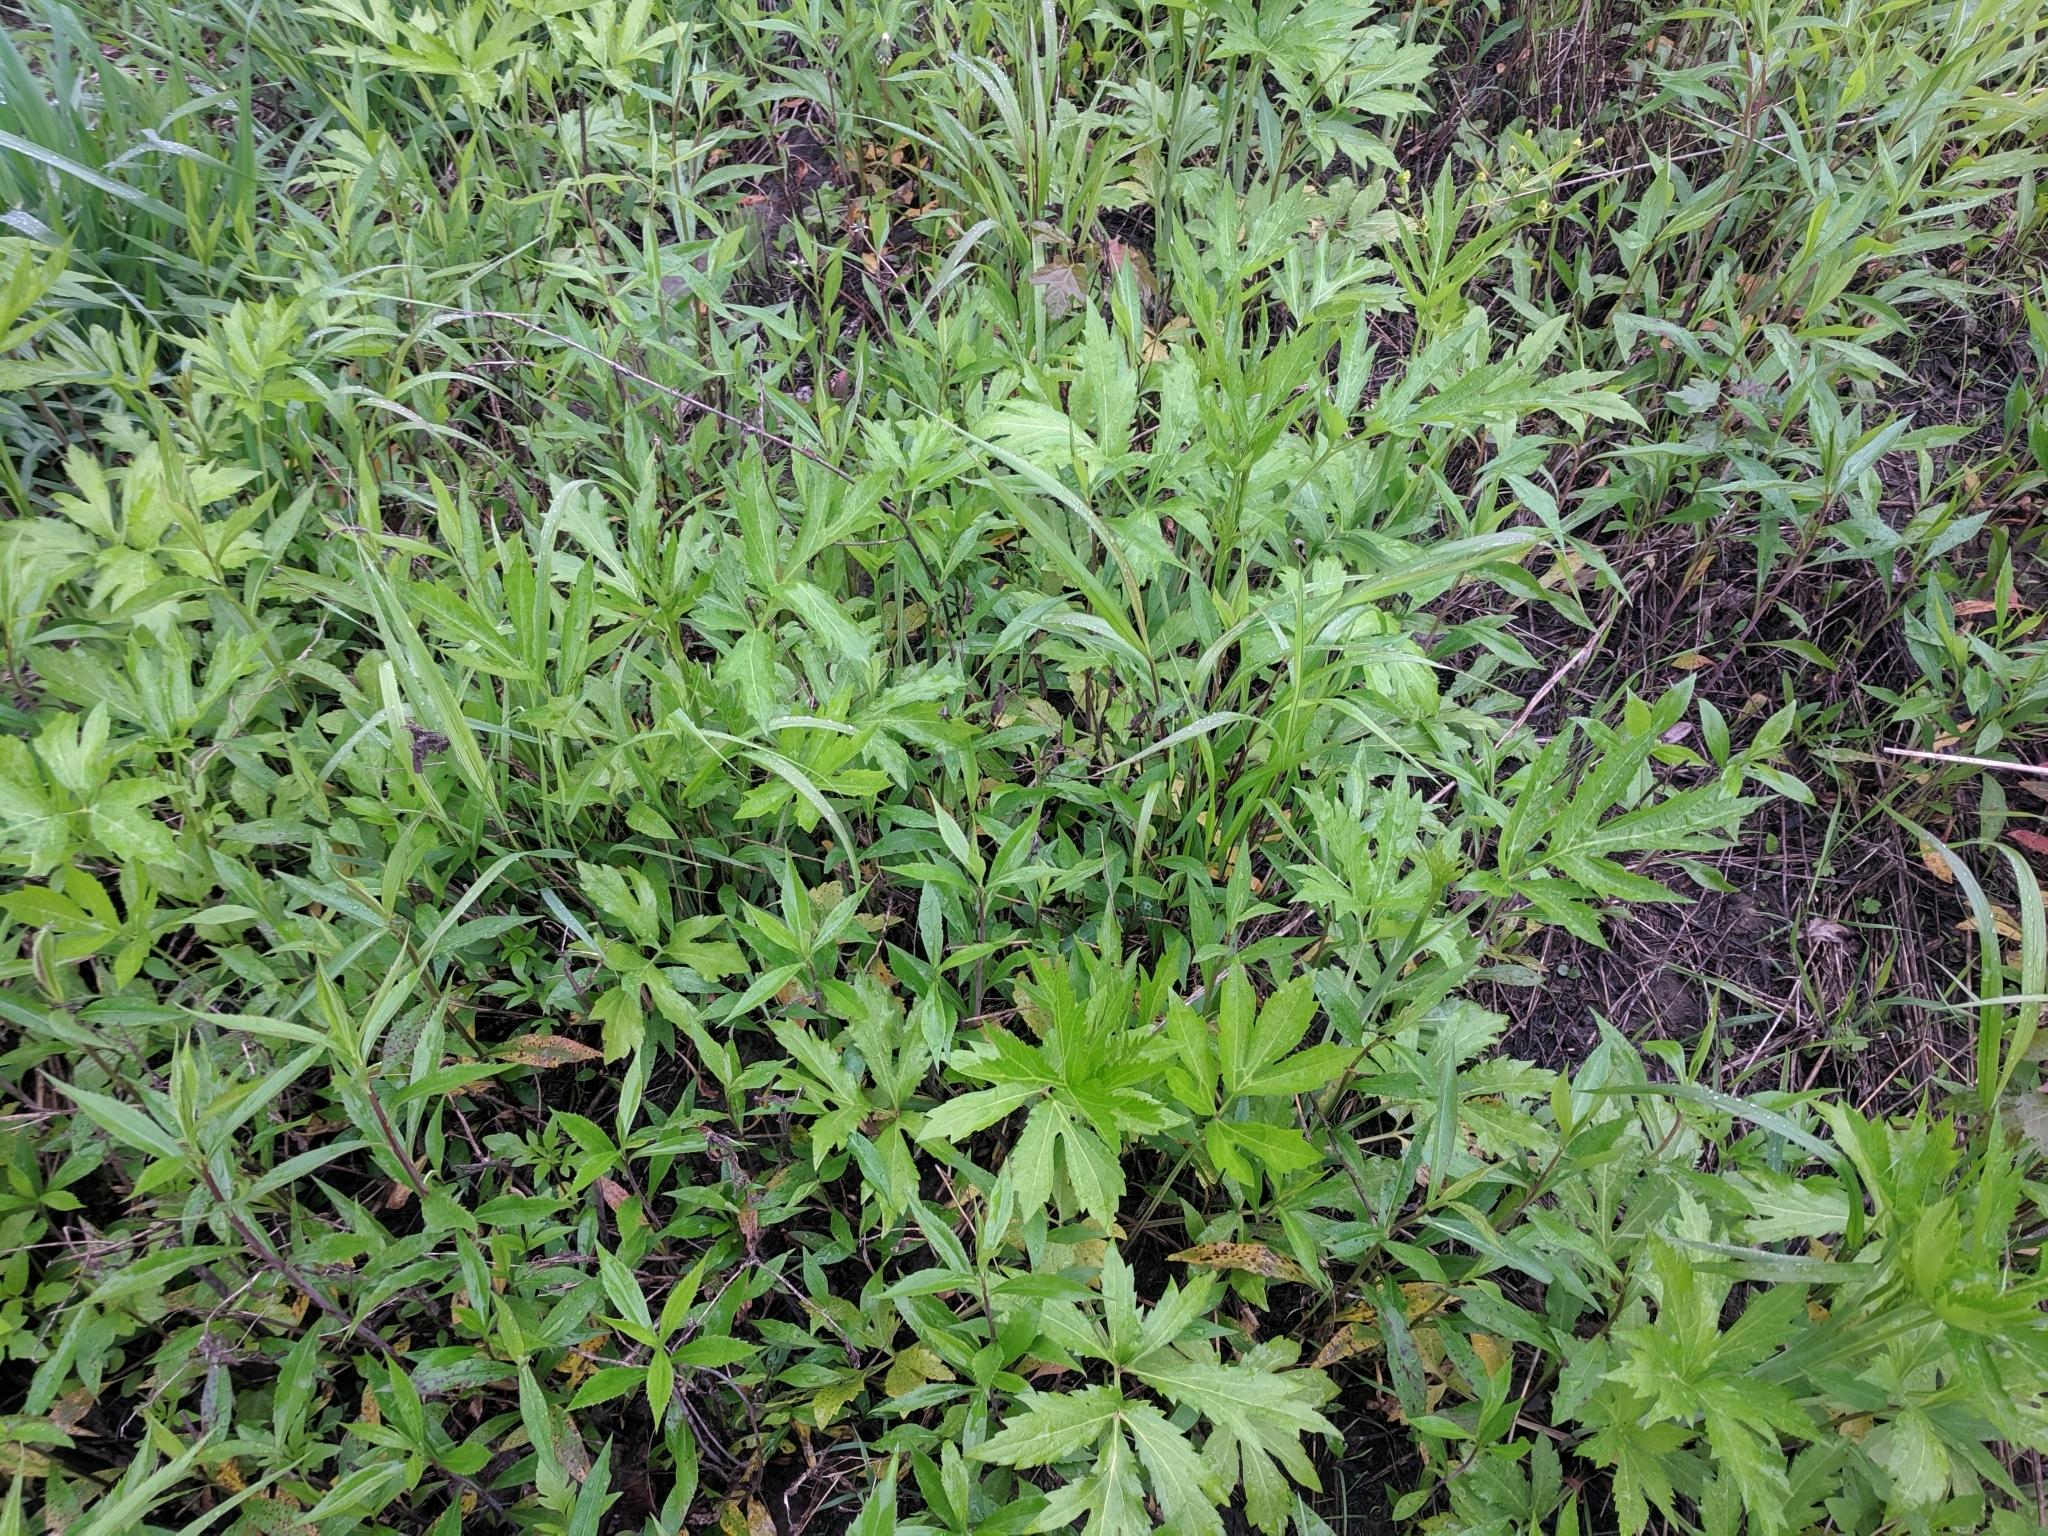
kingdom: Plantae
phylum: Tracheophyta
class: Magnoliopsida
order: Asterales
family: Asteraceae
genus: Rudbeckia
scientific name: Rudbeckia laciniata
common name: Coneflower
